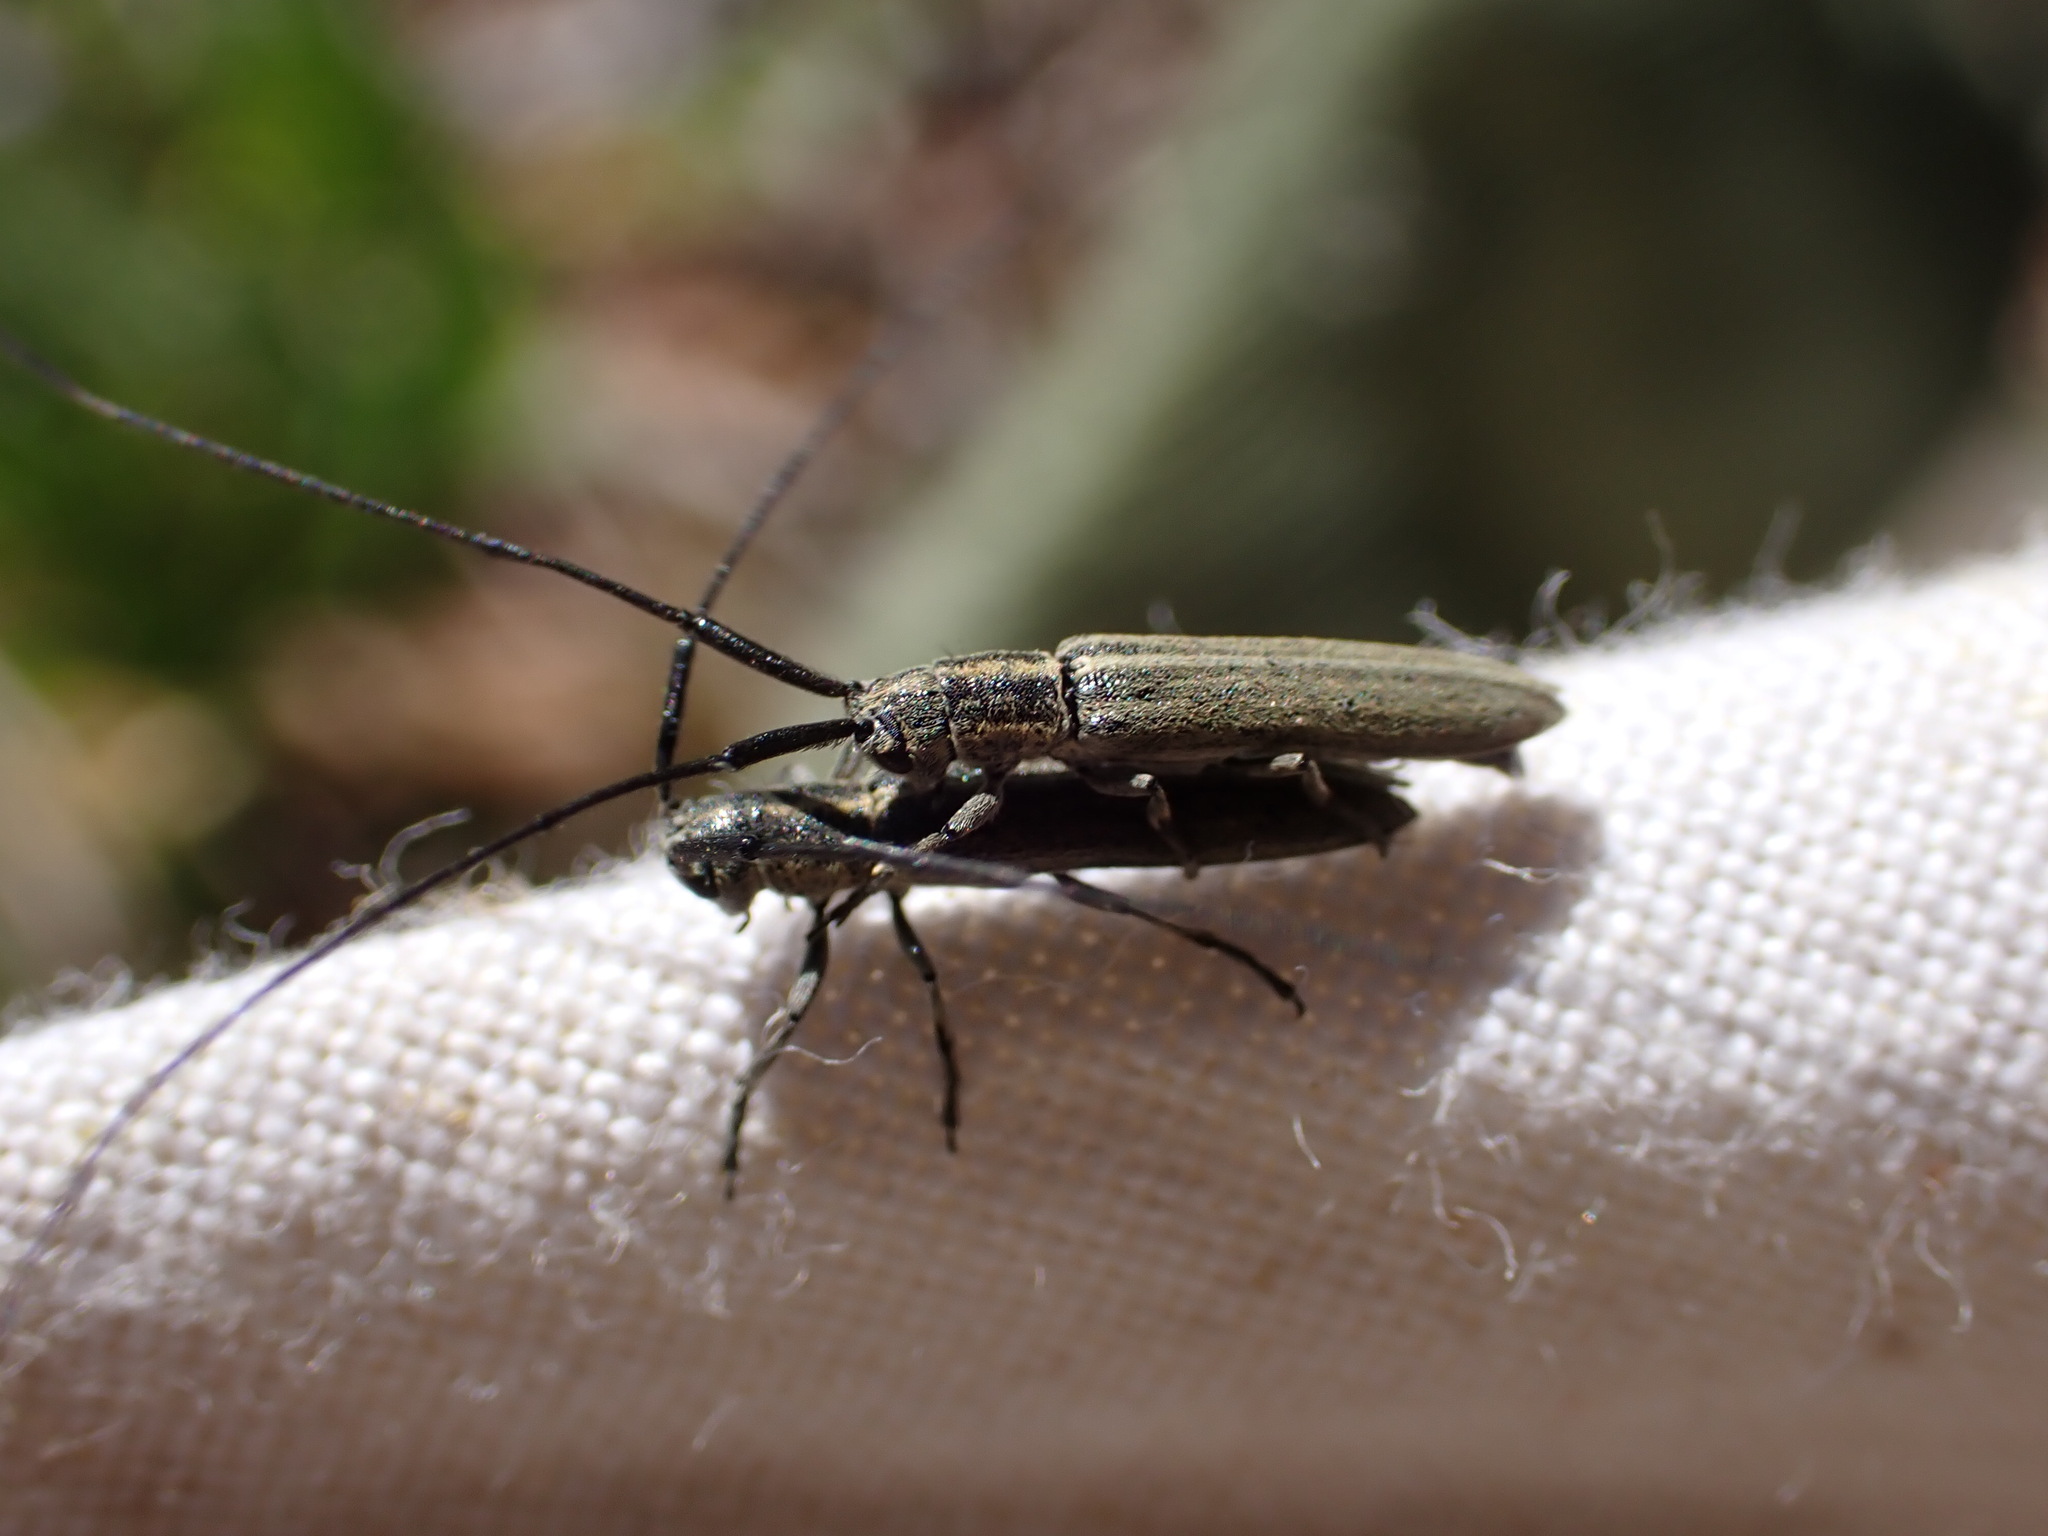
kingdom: Animalia
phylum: Arthropoda
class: Insecta
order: Coleoptera
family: Cerambycidae
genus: Calamobius
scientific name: Calamobius filum
